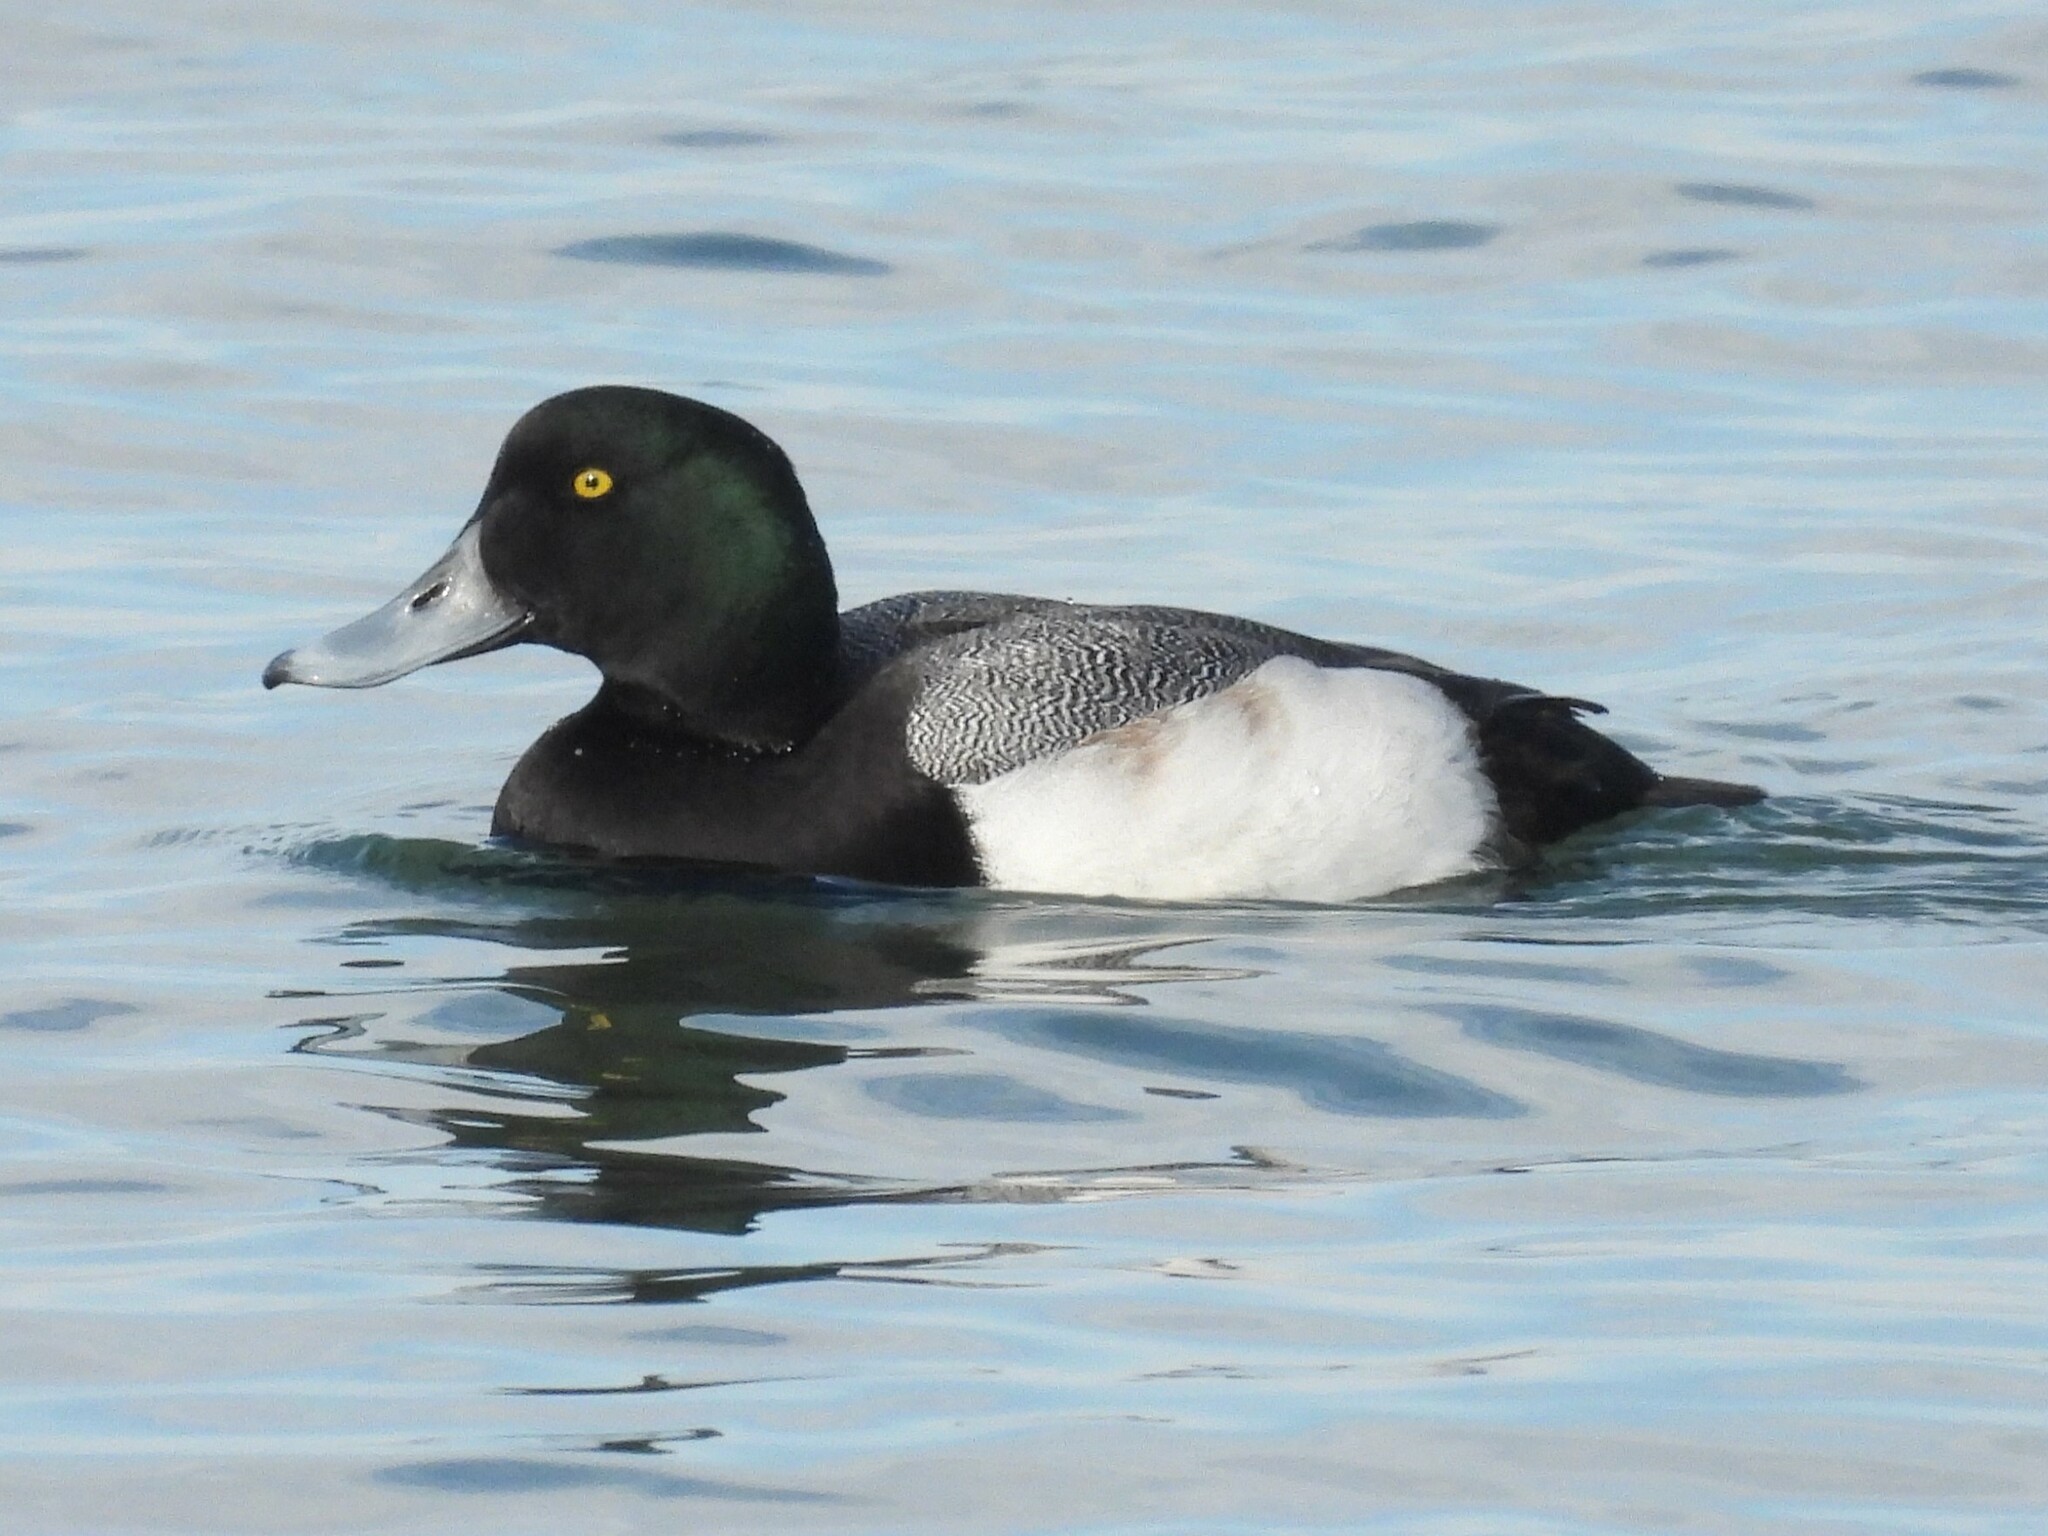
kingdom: Animalia
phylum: Chordata
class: Aves
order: Anseriformes
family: Anatidae
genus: Aythya
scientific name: Aythya marila
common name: Greater scaup
